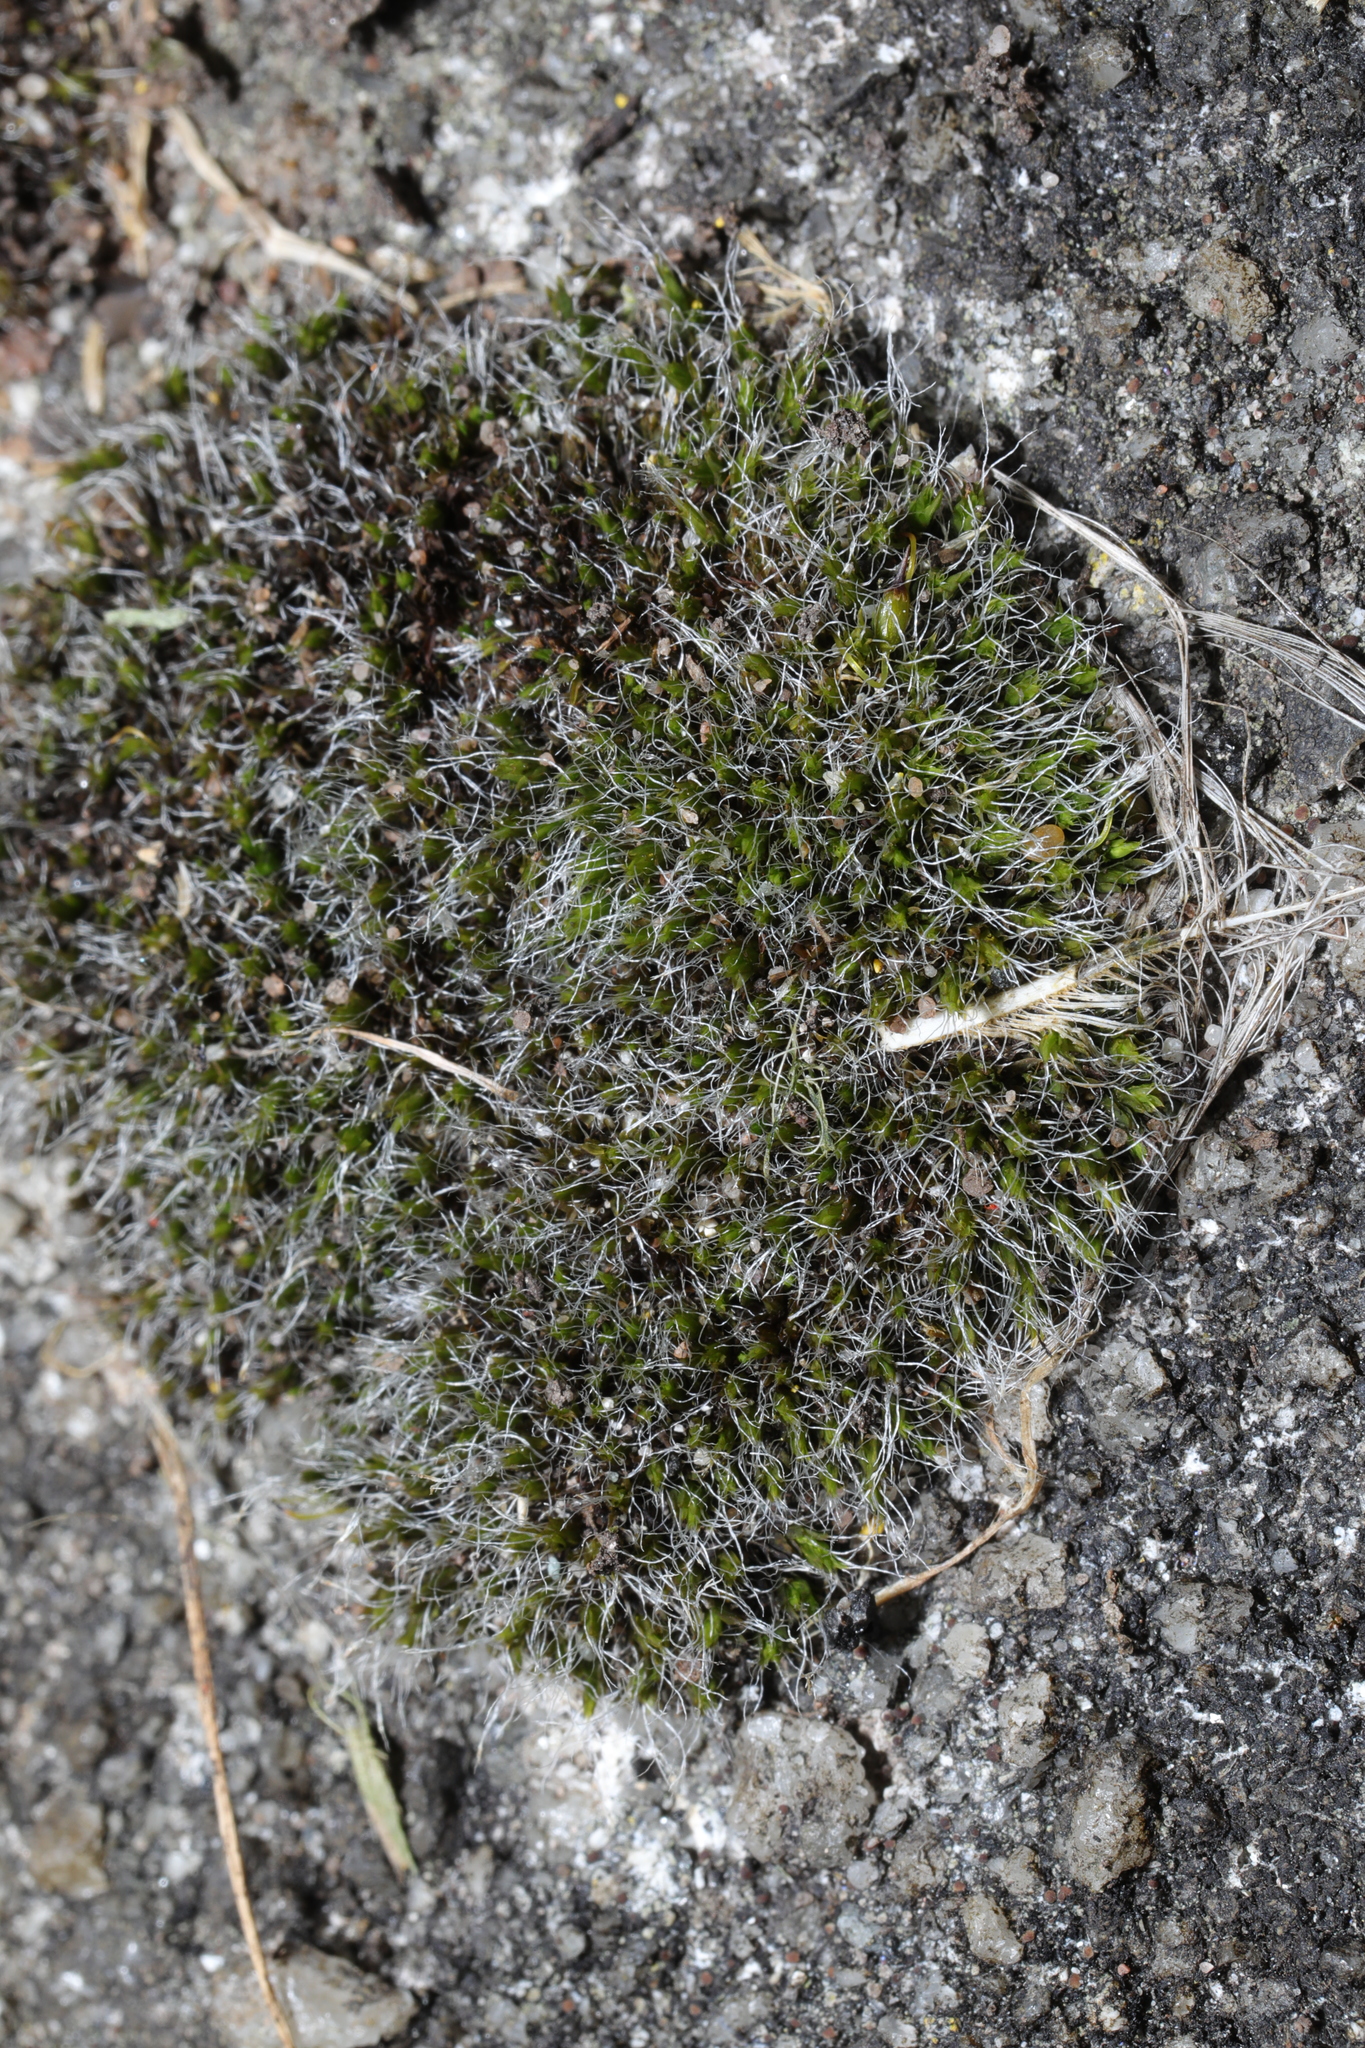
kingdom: Plantae
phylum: Bryophyta
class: Bryopsida
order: Grimmiales
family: Grimmiaceae
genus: Grimmia
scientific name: Grimmia pulvinata
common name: Grey-cushioned grimmia
